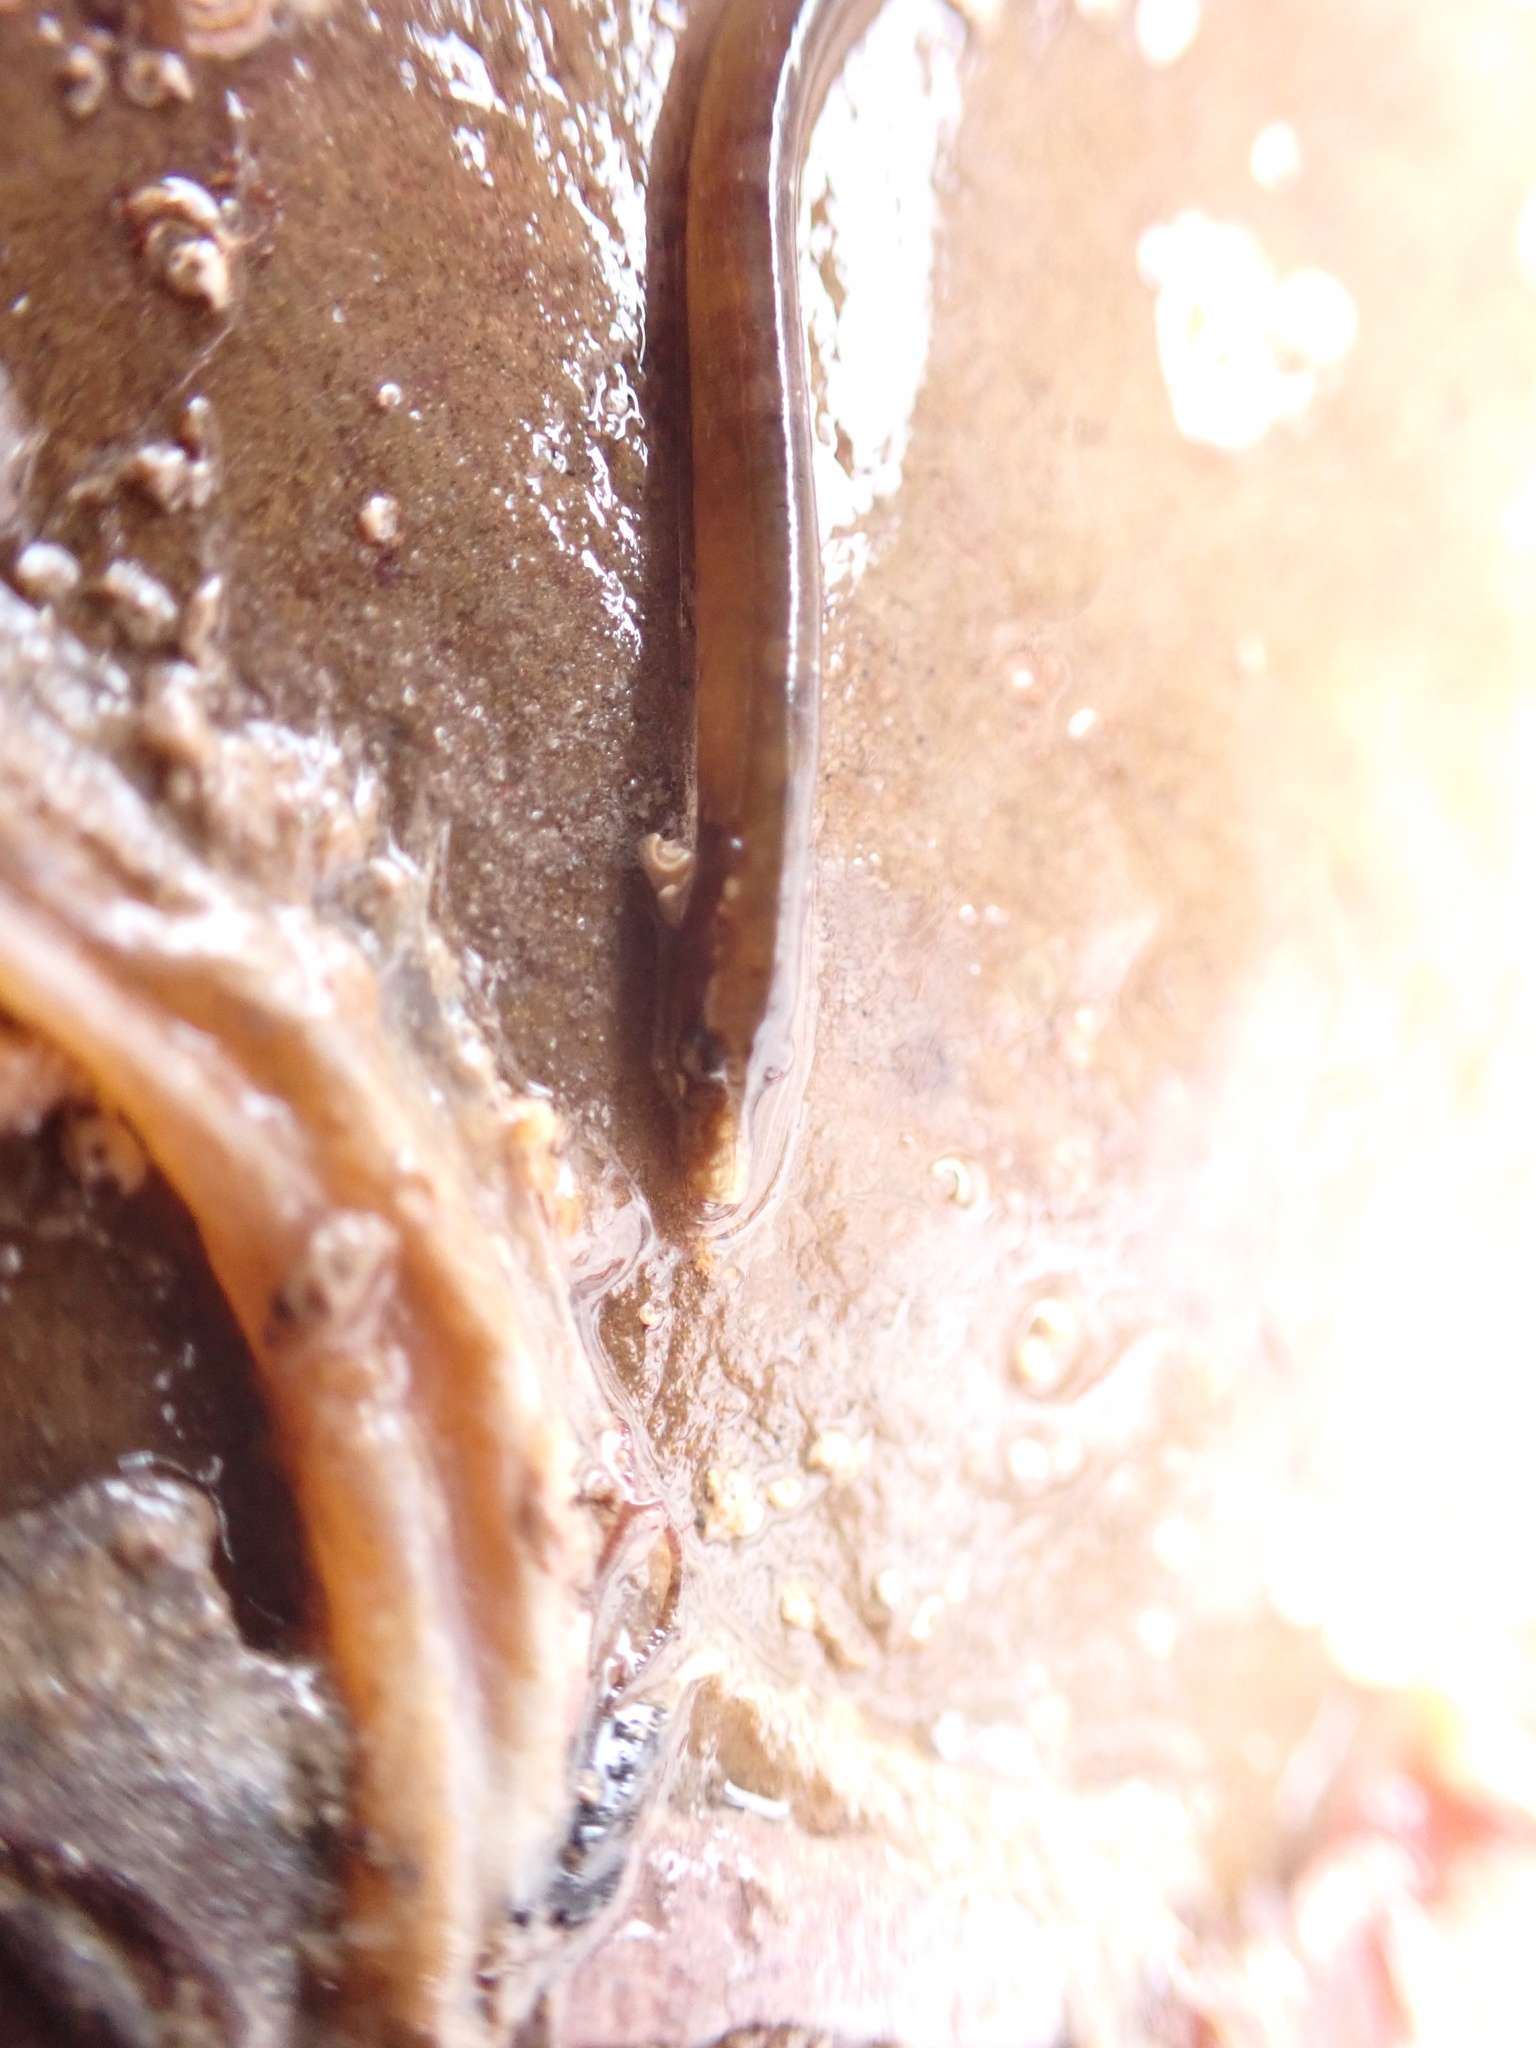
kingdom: Animalia
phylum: Chordata
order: Syngnathiformes
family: Syngnathidae
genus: Nerophis
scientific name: Nerophis lumbriciformis
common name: Worm pipefish
